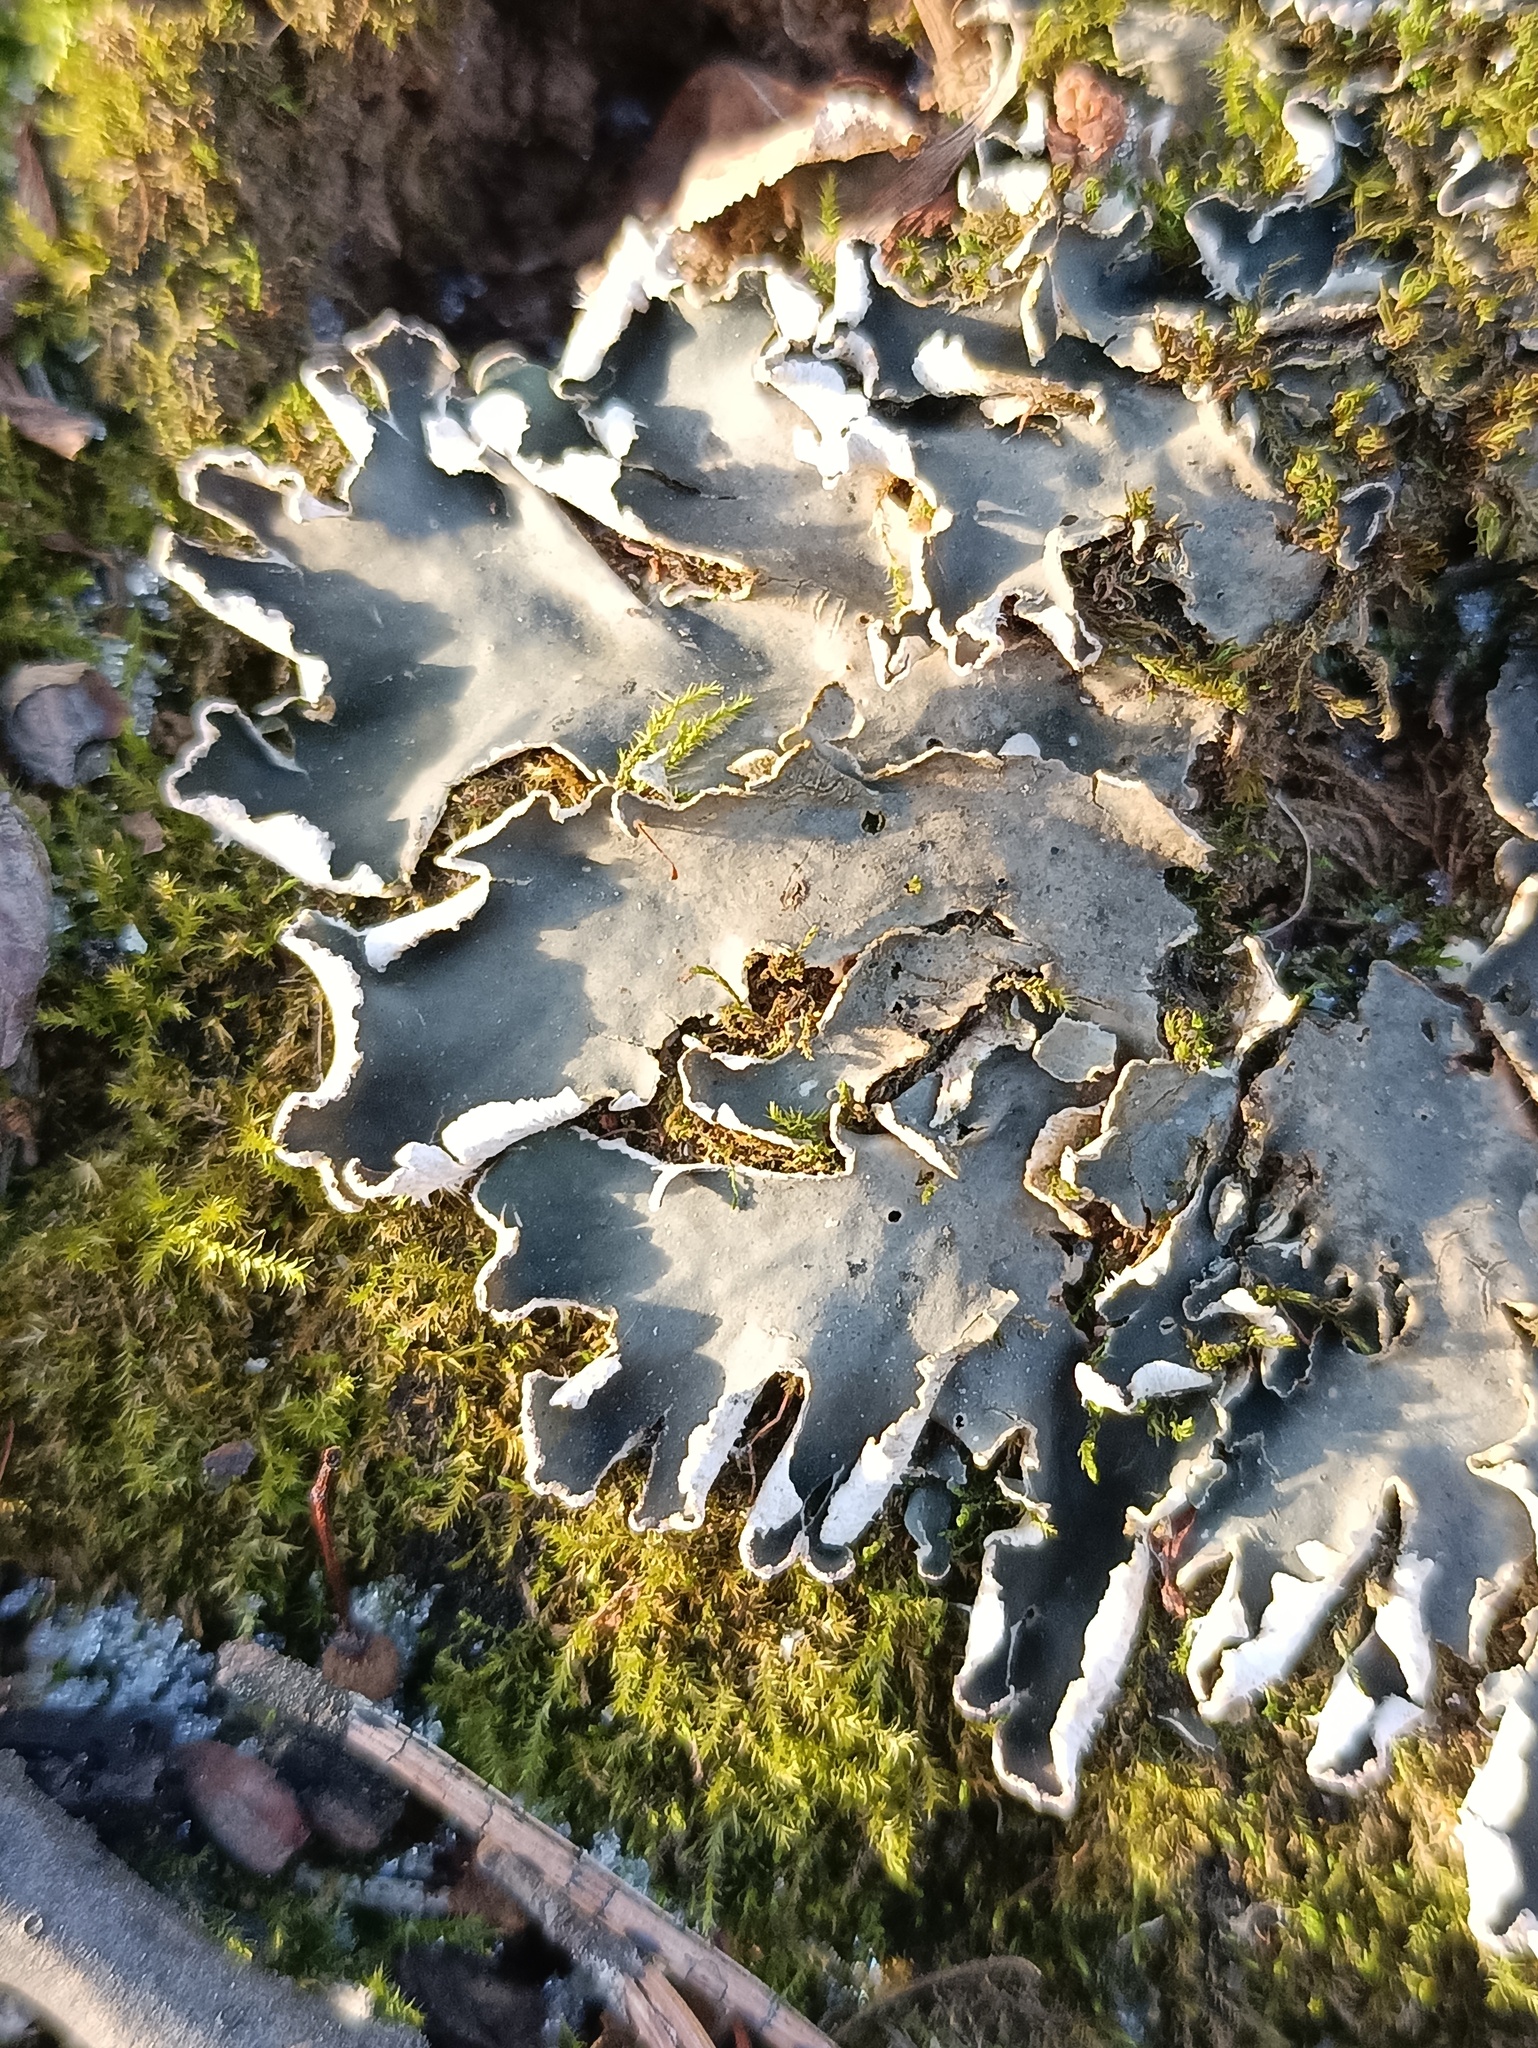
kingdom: Fungi
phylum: Ascomycota
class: Lecanoromycetes
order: Peltigerales
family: Peltigeraceae
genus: Peltigera
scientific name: Peltigera praetextata
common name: Scaly dog-lichen
